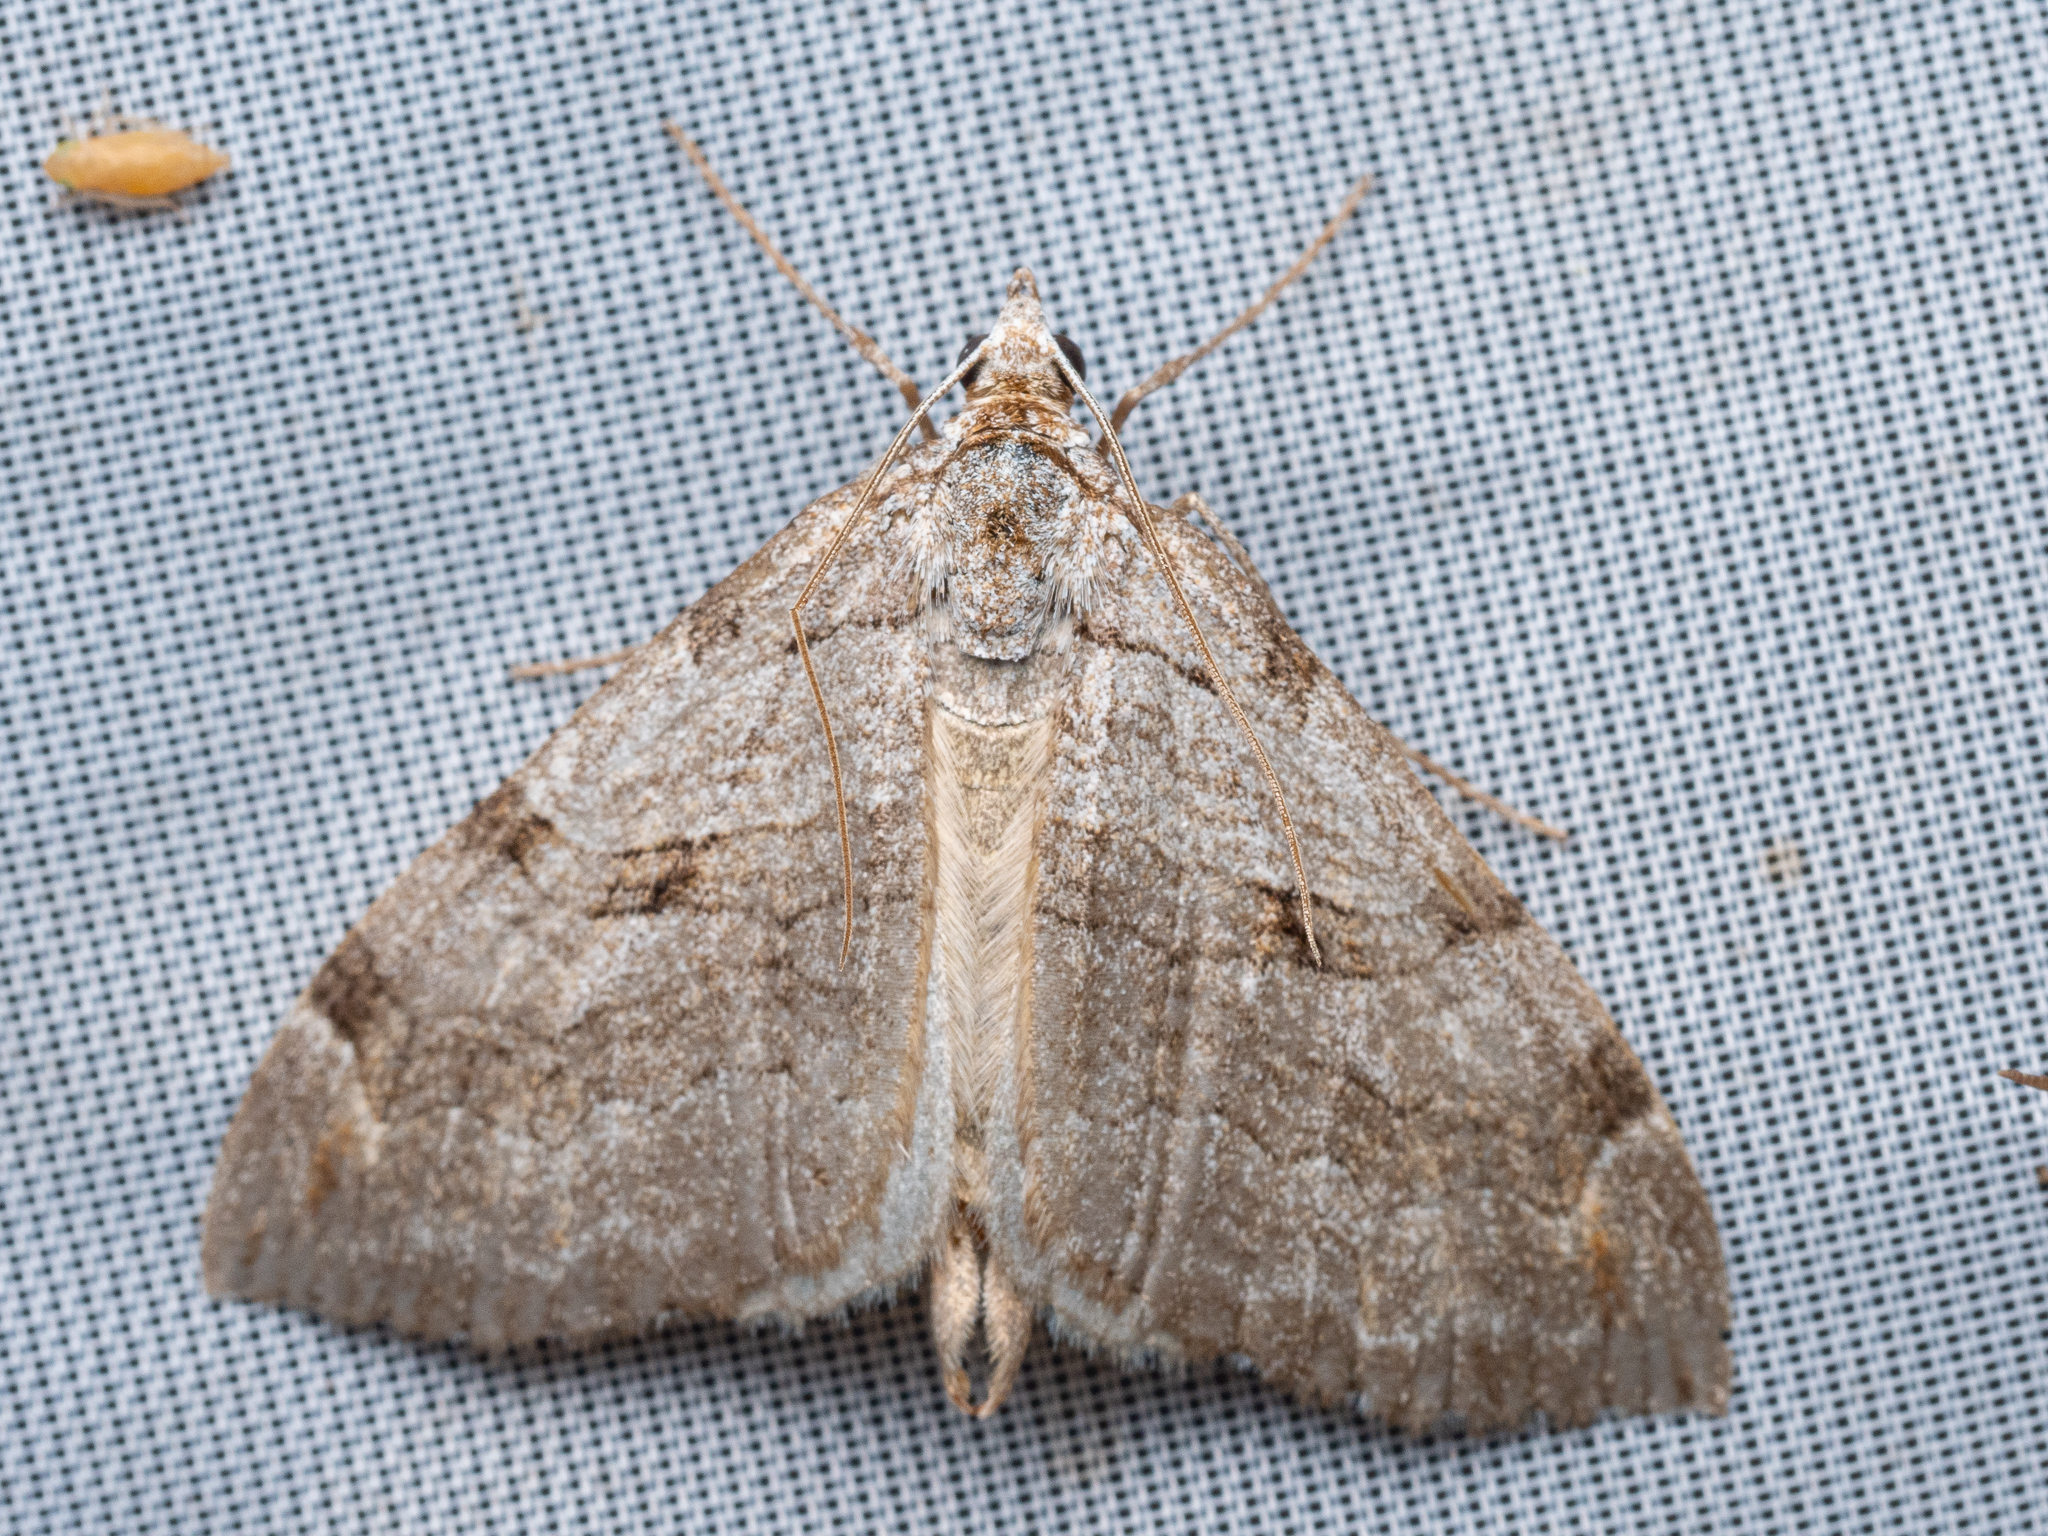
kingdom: Animalia
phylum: Arthropoda
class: Insecta
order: Lepidoptera
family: Geometridae
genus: Aplocera
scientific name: Aplocera plagiata
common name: Treble-bar
